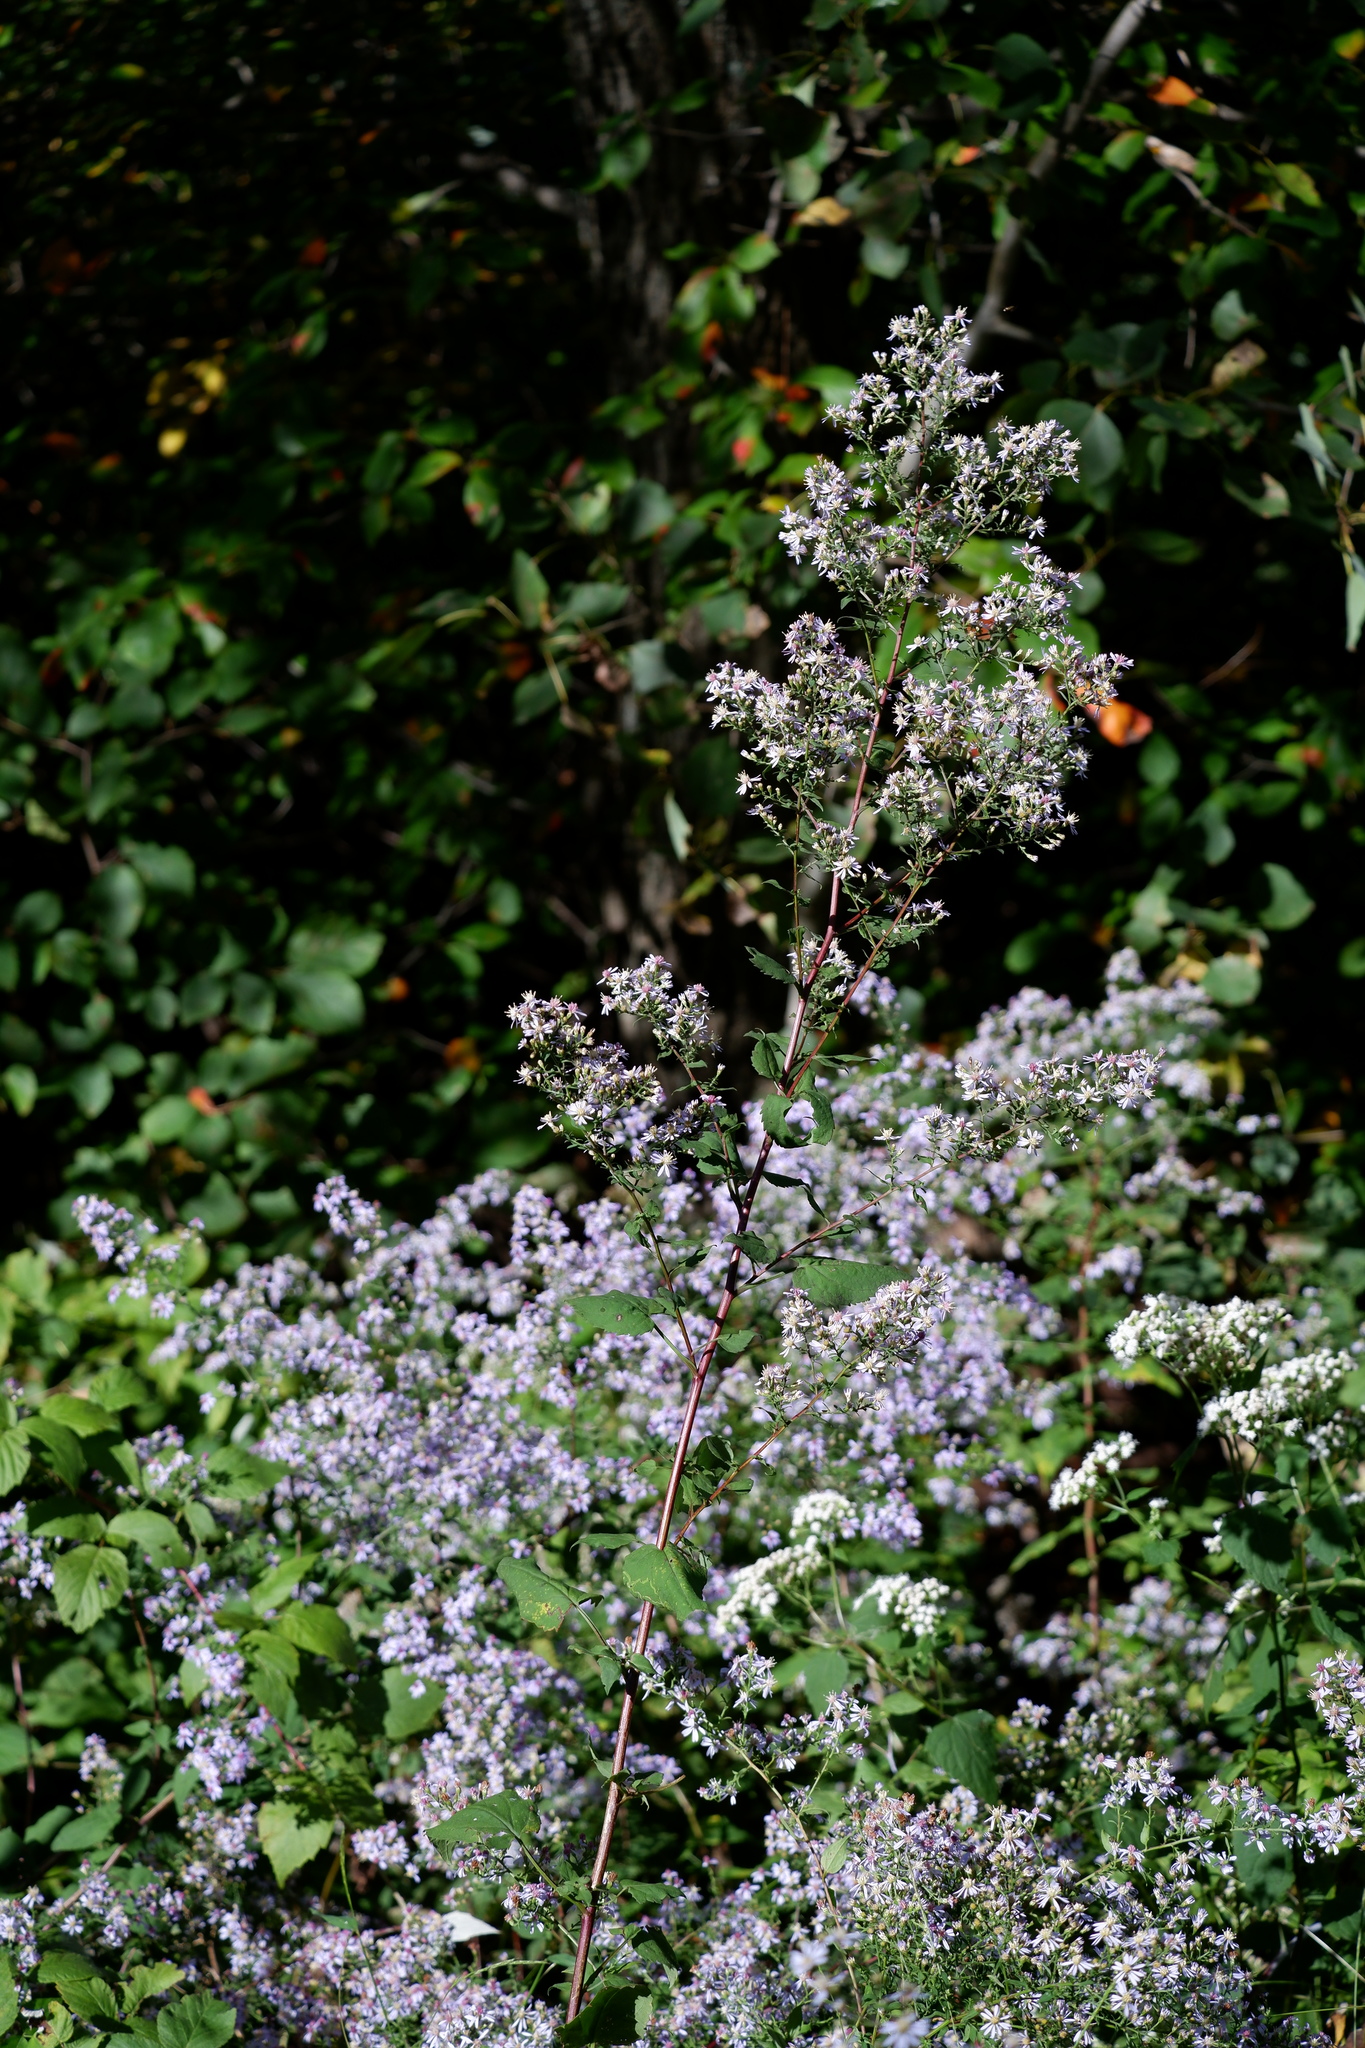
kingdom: Plantae
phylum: Tracheophyta
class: Magnoliopsida
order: Asterales
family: Asteraceae
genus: Symphyotrichum
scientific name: Symphyotrichum cordifolium
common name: Beeweed
